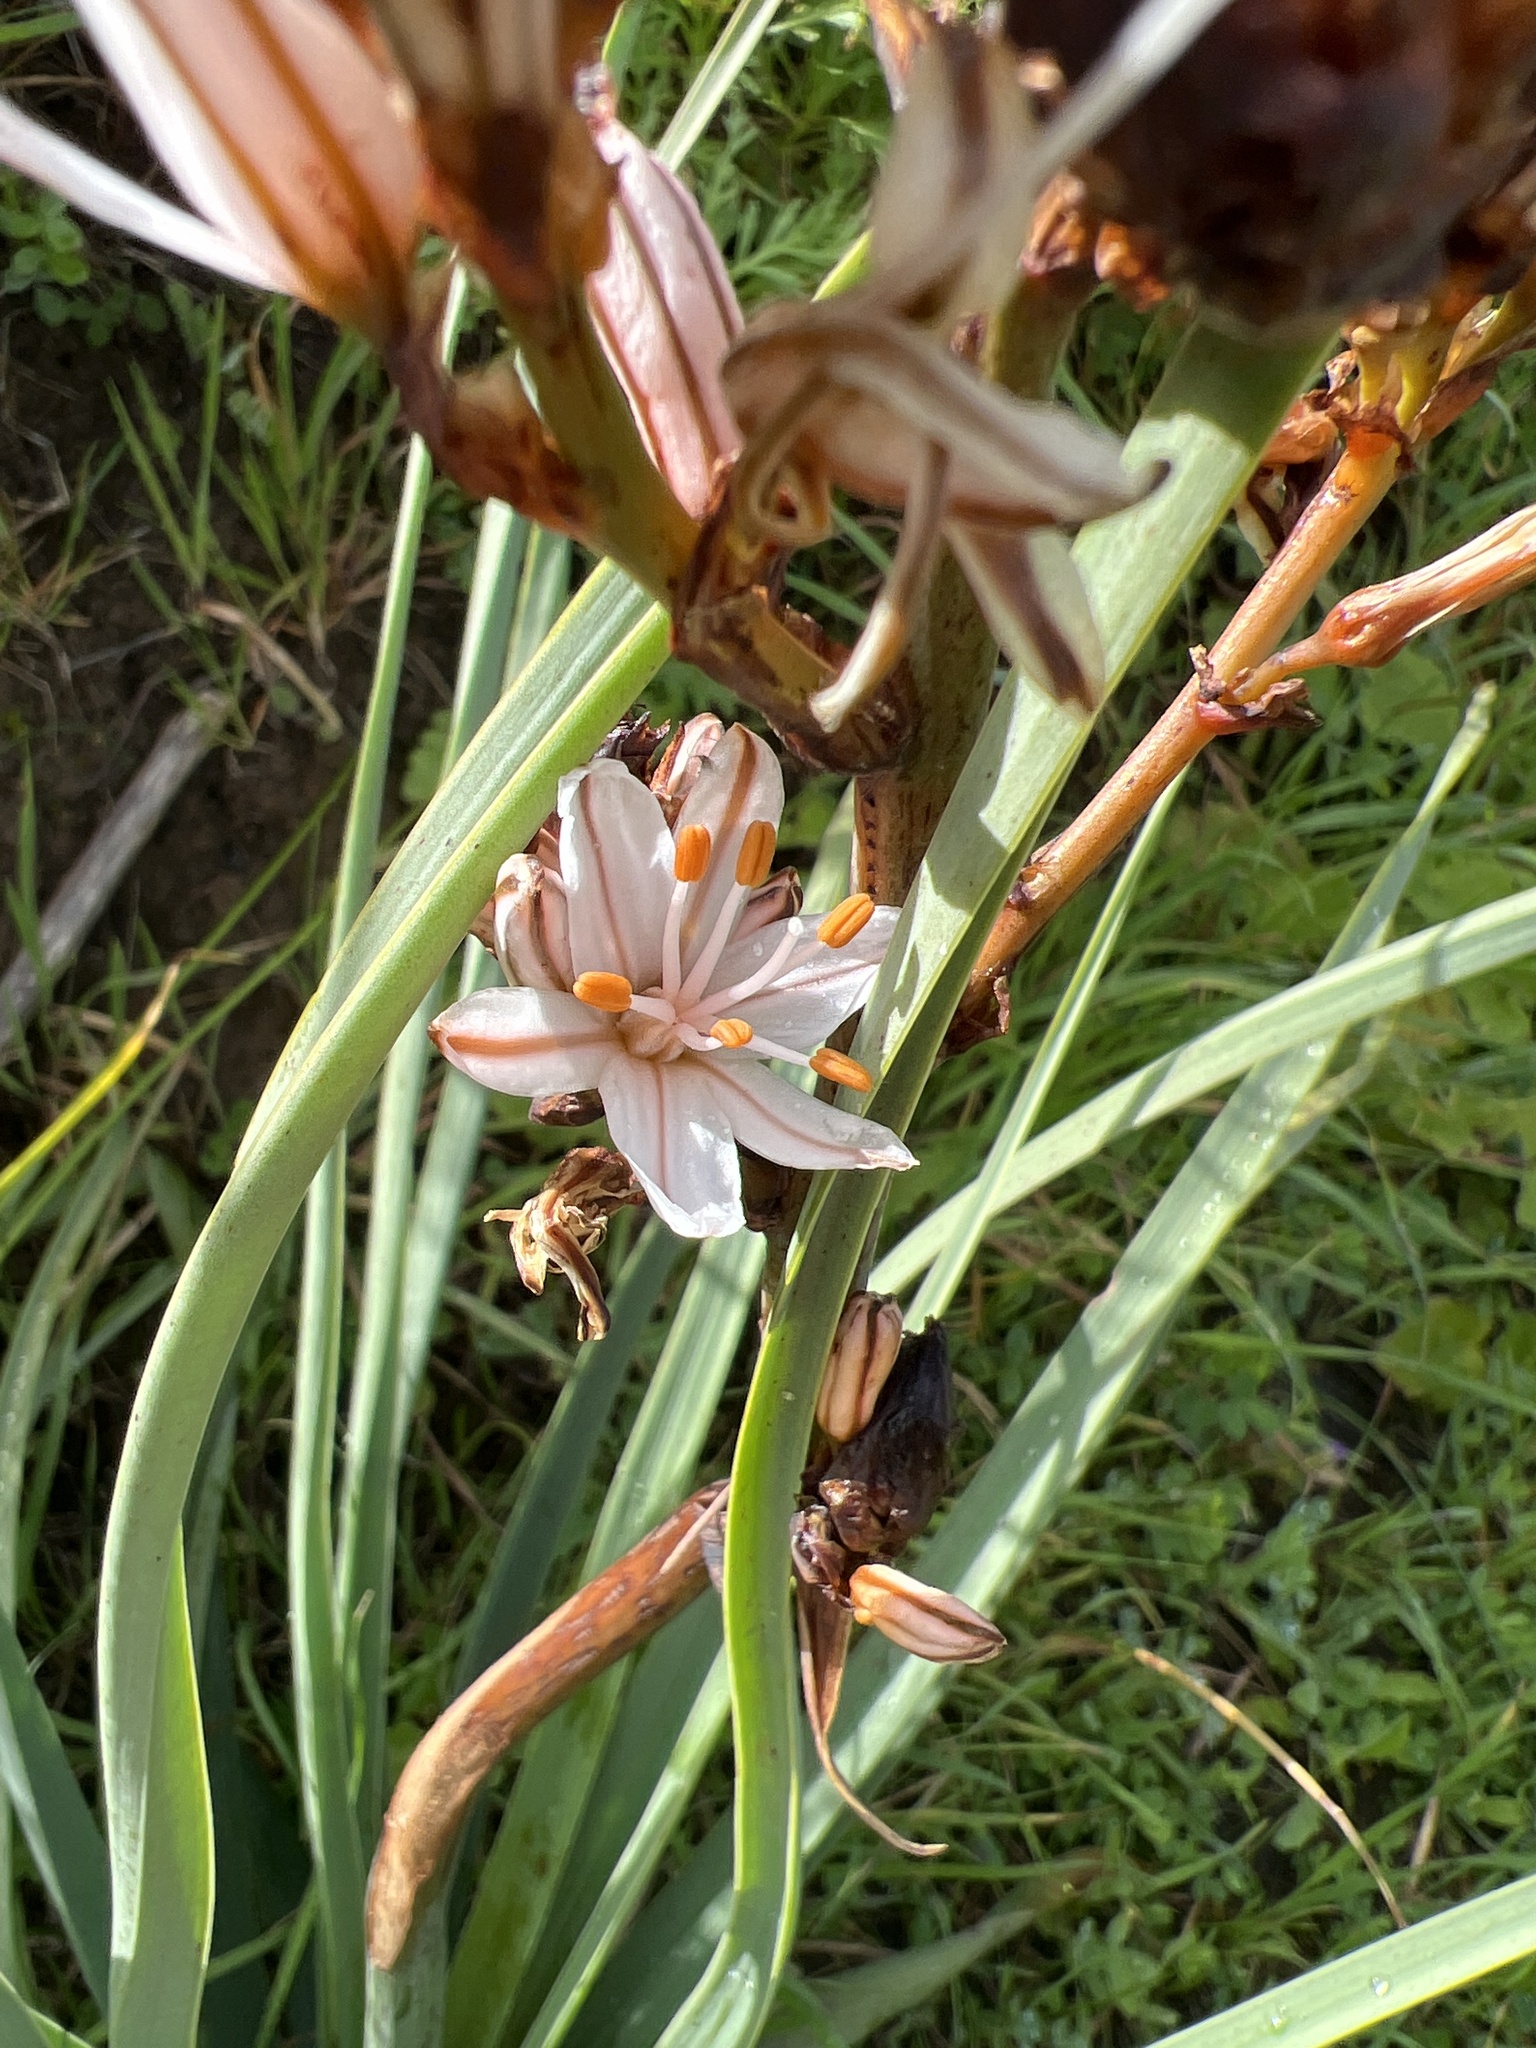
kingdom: Plantae
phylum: Tracheophyta
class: Liliopsida
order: Asparagales
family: Asphodelaceae
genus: Asphodelus
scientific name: Asphodelus ramosus
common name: Silverrod
